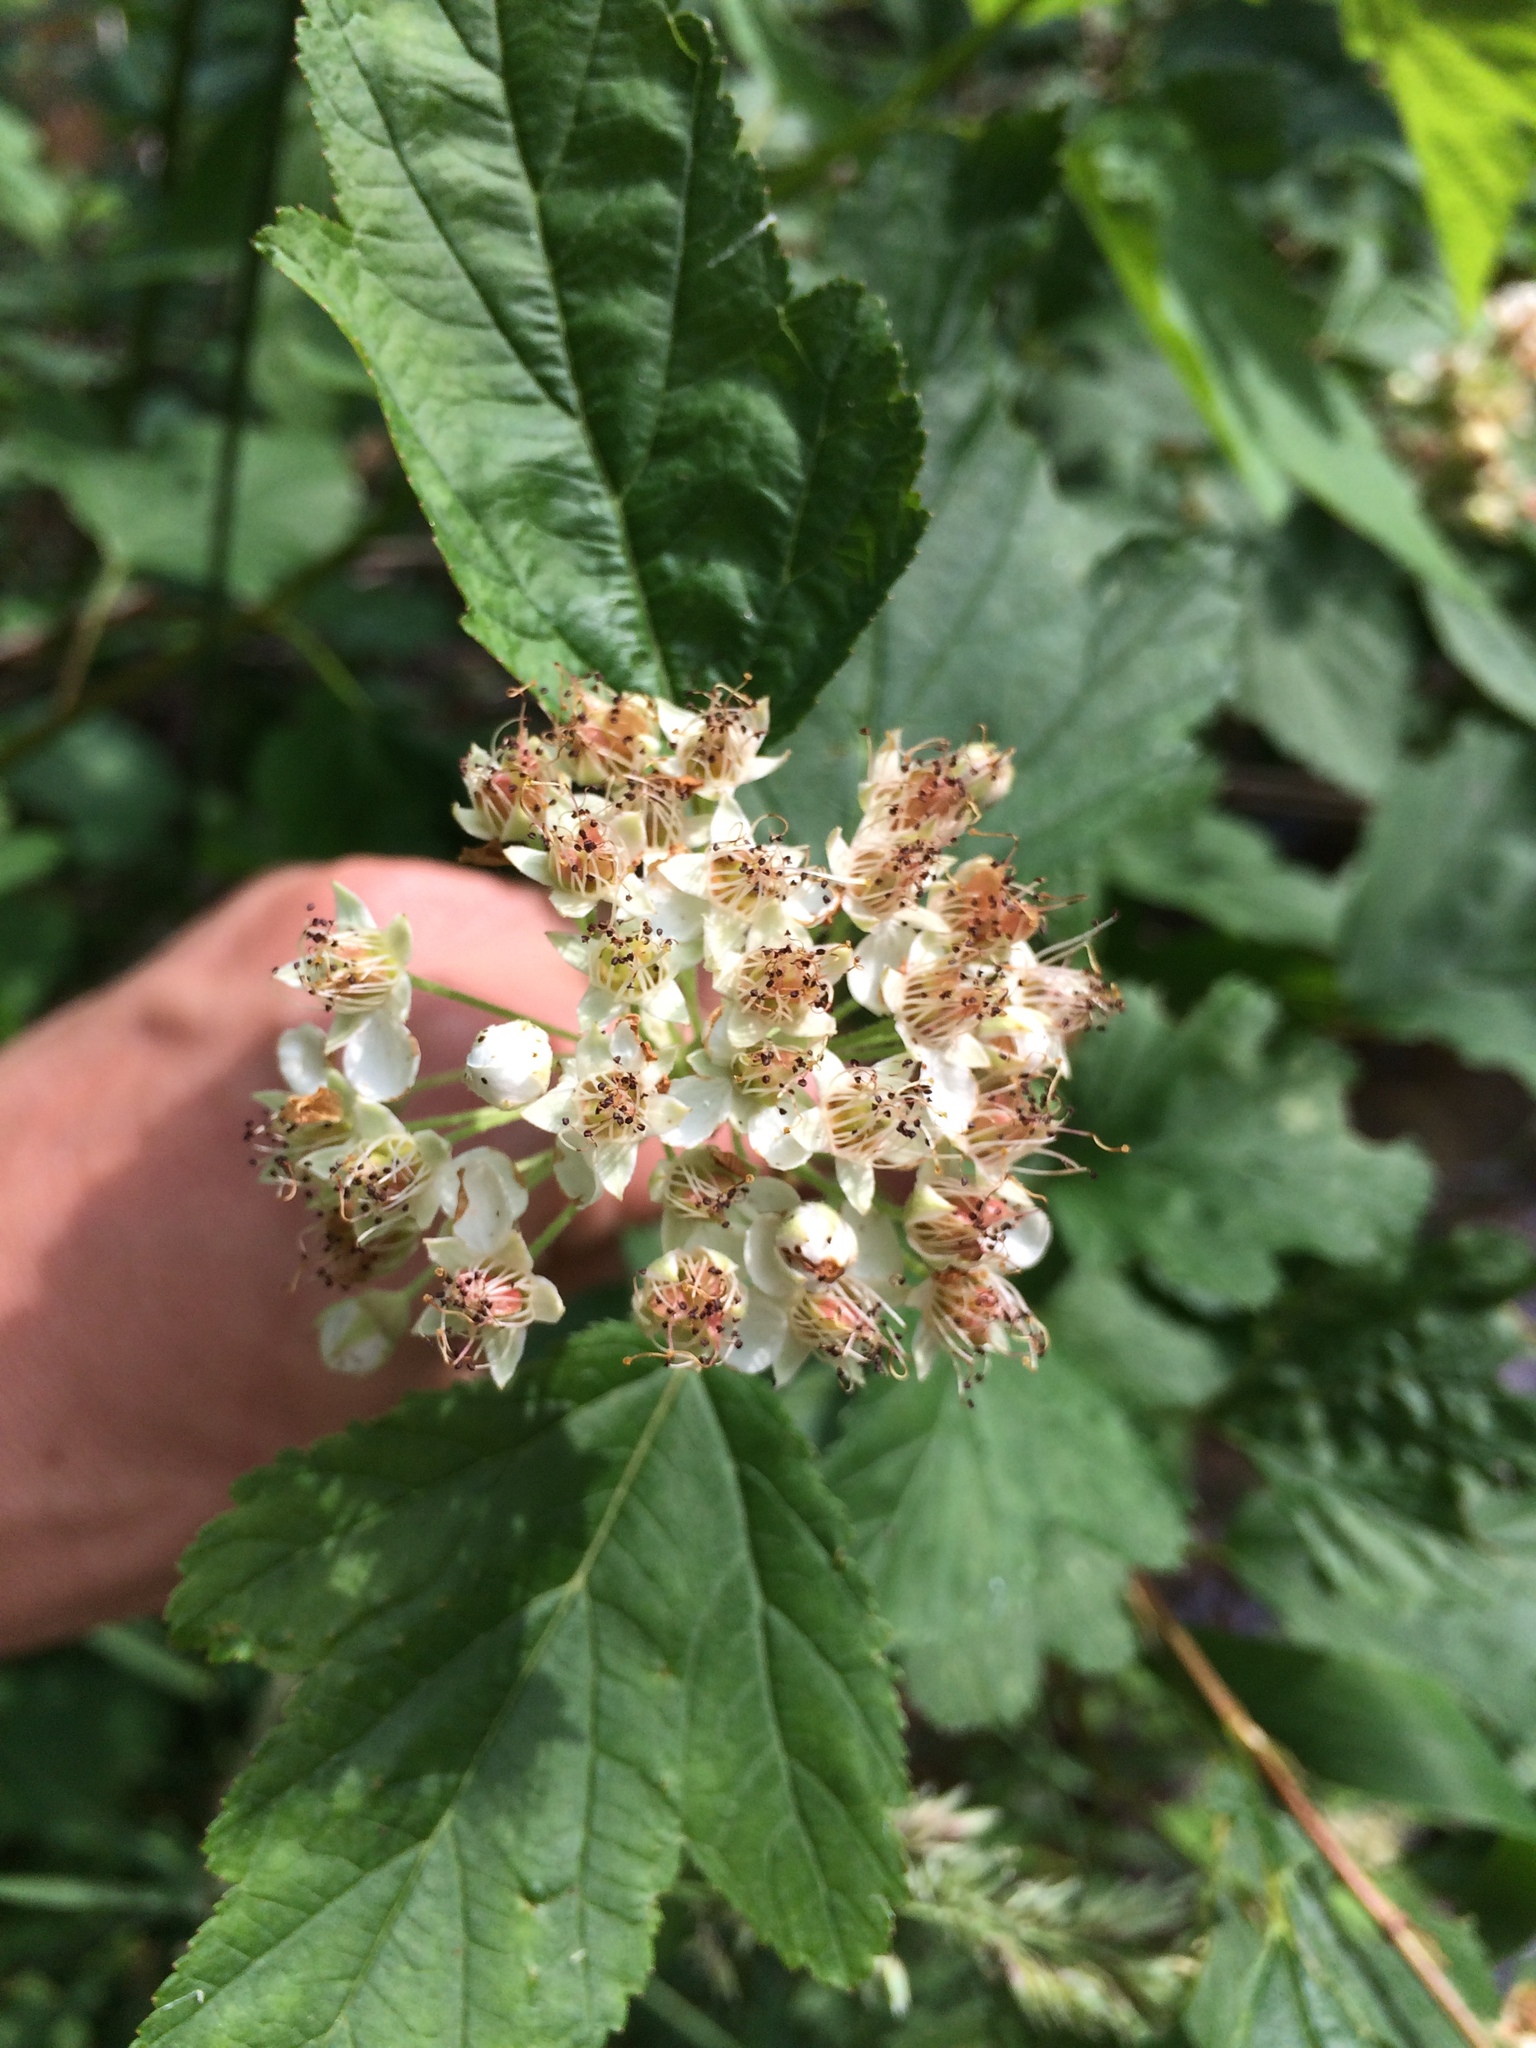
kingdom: Plantae
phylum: Tracheophyta
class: Magnoliopsida
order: Rosales
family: Rosaceae
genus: Physocarpus
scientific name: Physocarpus opulifolius
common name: Ninebark
